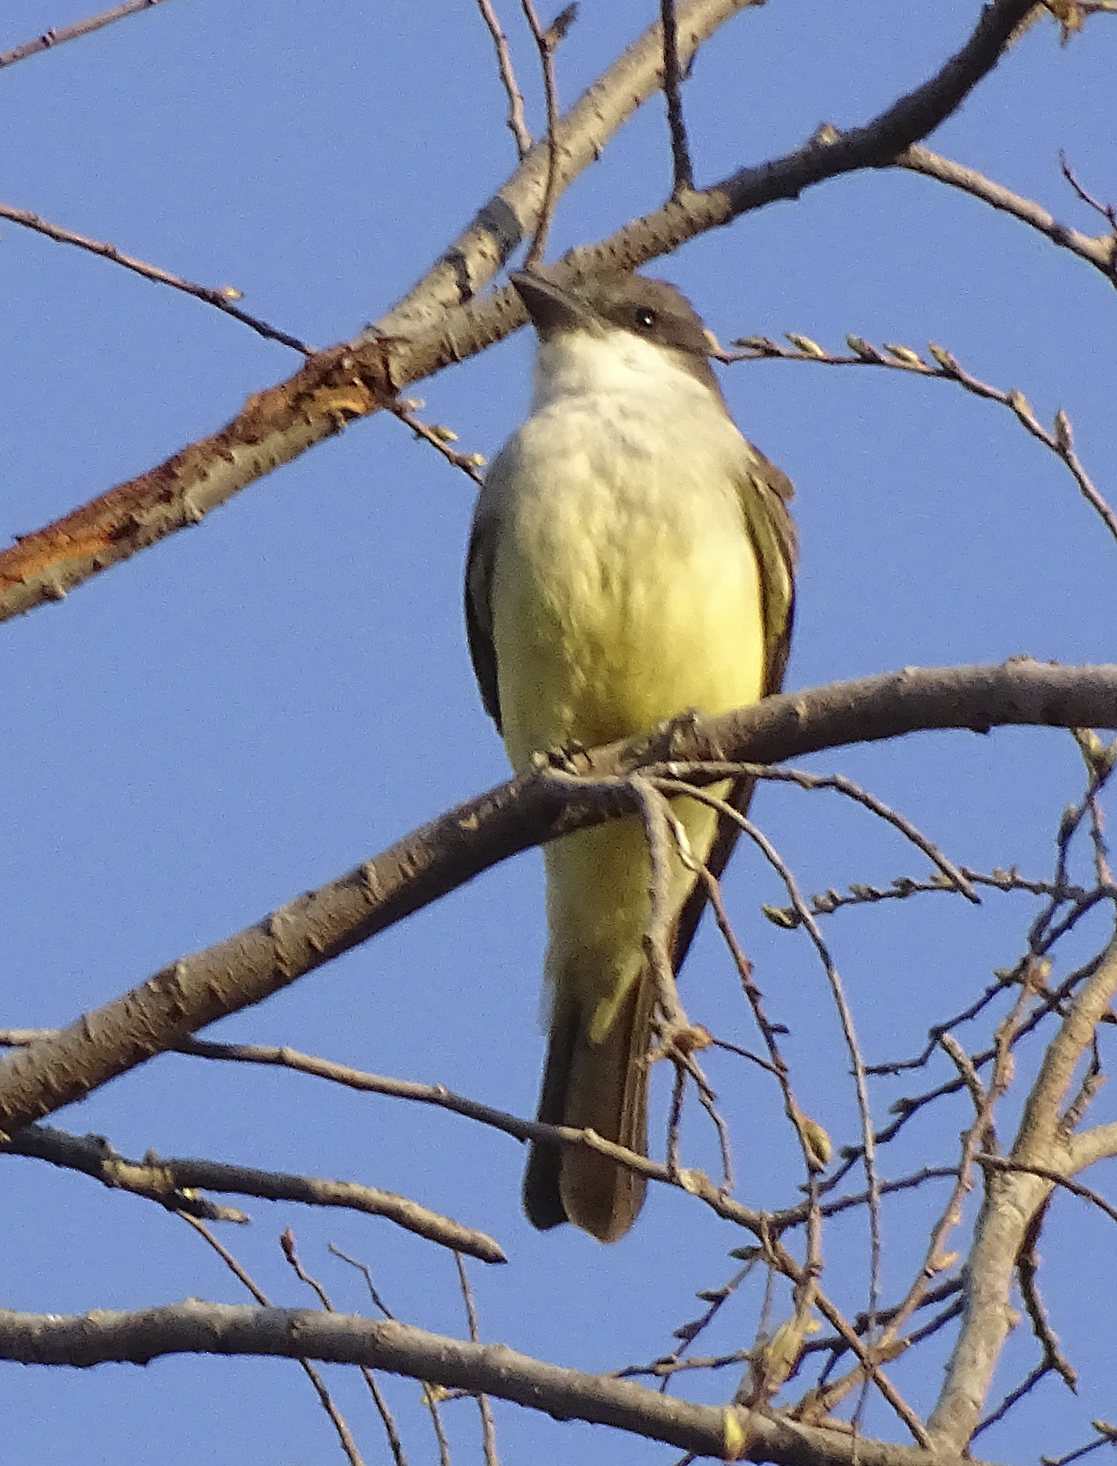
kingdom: Animalia
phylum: Chordata
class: Aves
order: Passeriformes
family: Tyrannidae
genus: Tyrannus
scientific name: Tyrannus crassirostris
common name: Thick-billed kingbird
